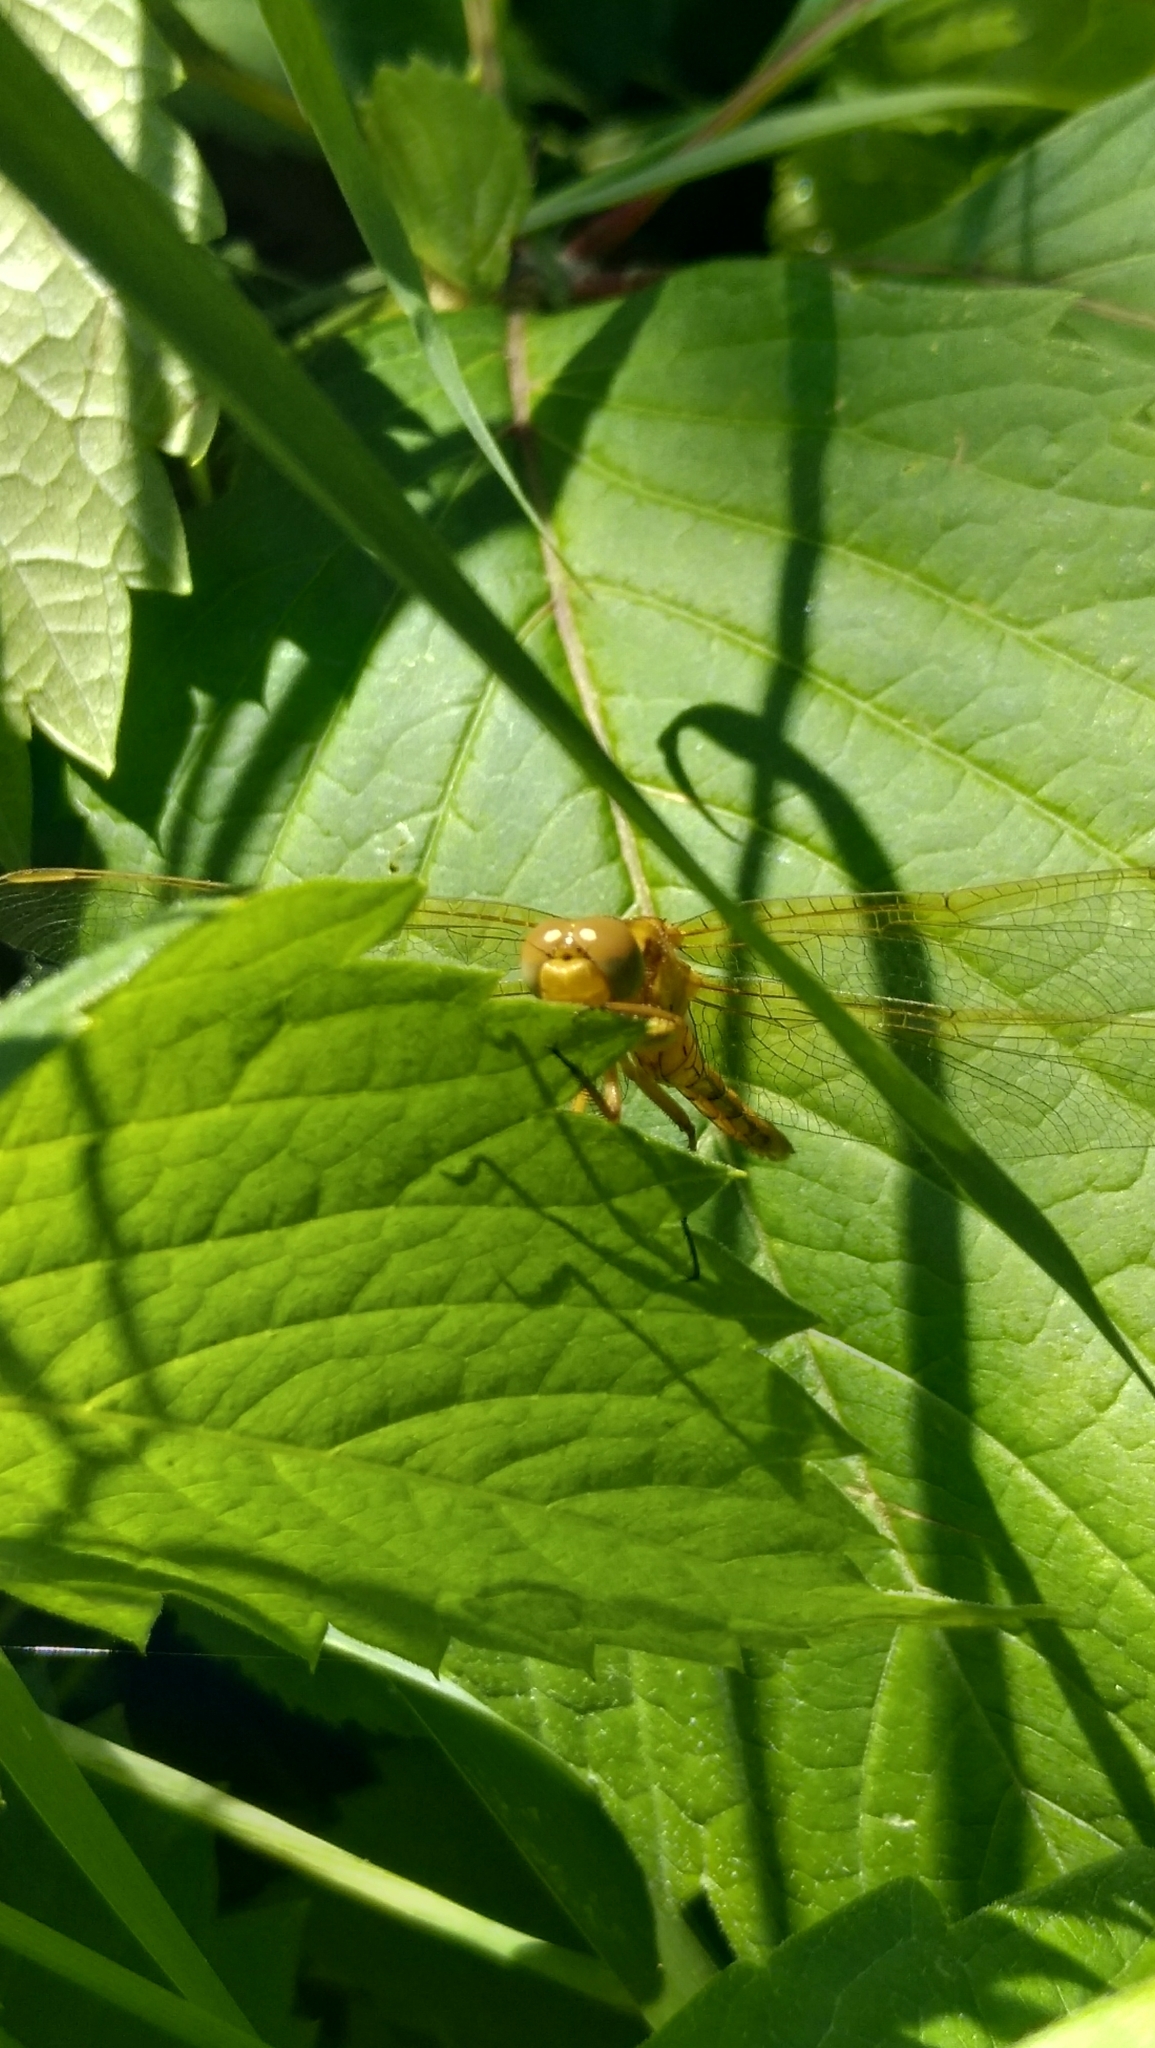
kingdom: Animalia
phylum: Arthropoda
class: Insecta
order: Odonata
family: Libellulidae
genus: Orthetrum
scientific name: Orthetrum coerulescens
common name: Keeled skimmer
